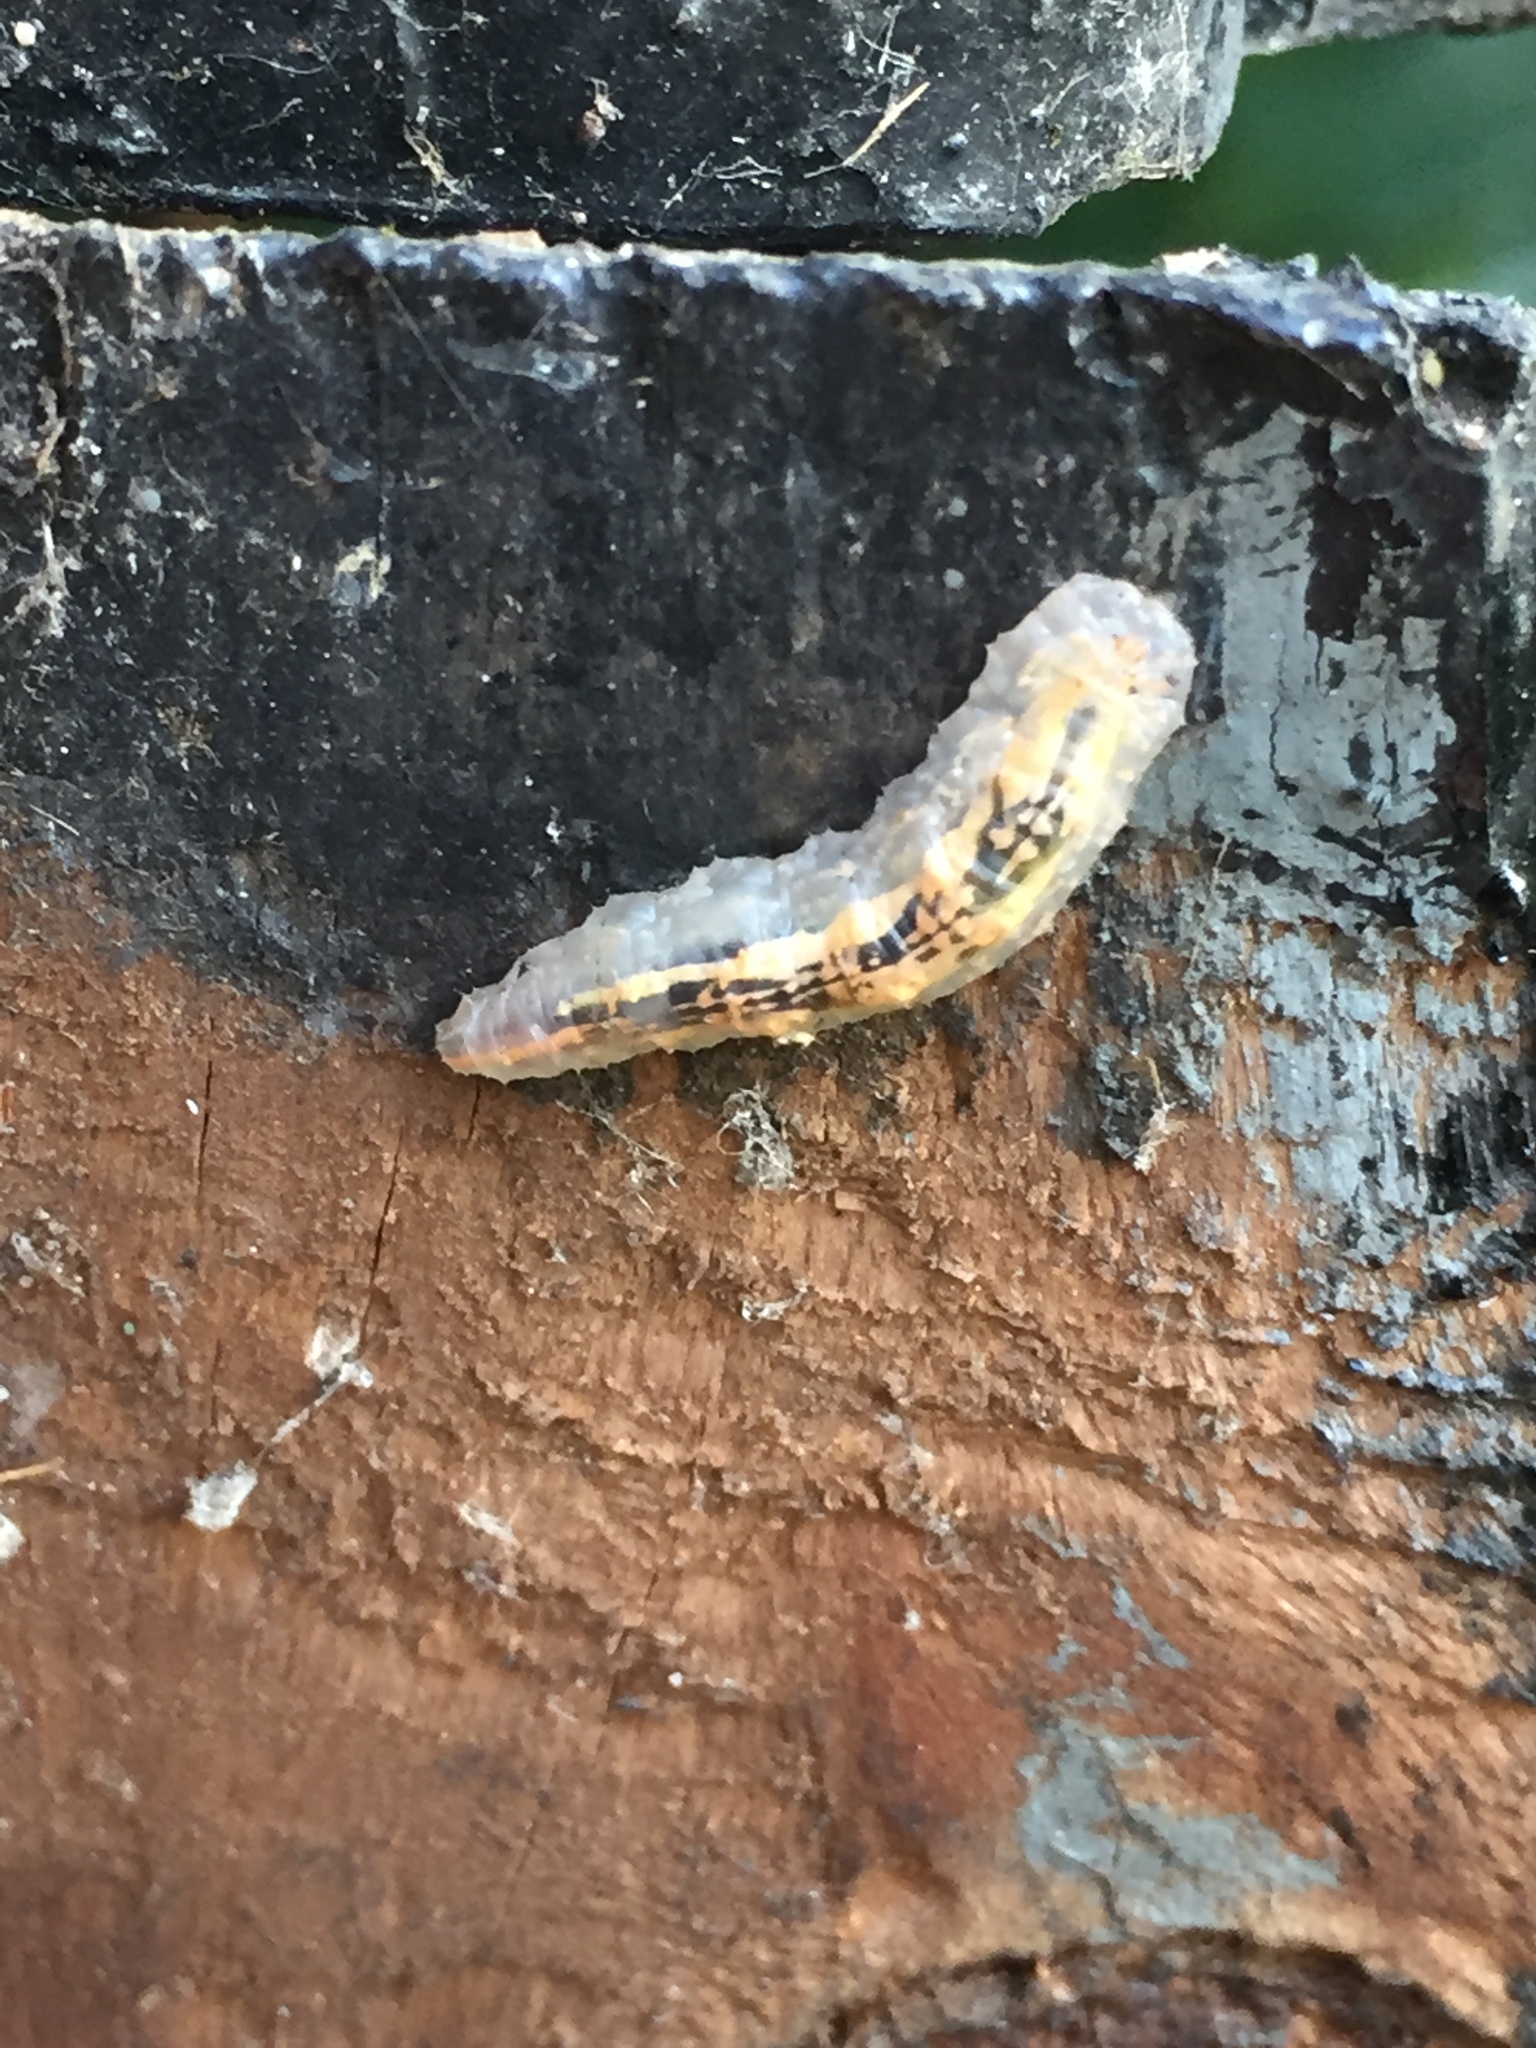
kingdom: Animalia
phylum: Arthropoda
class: Insecta
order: Diptera
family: Syrphidae
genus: Syrphus
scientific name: Syrphus
